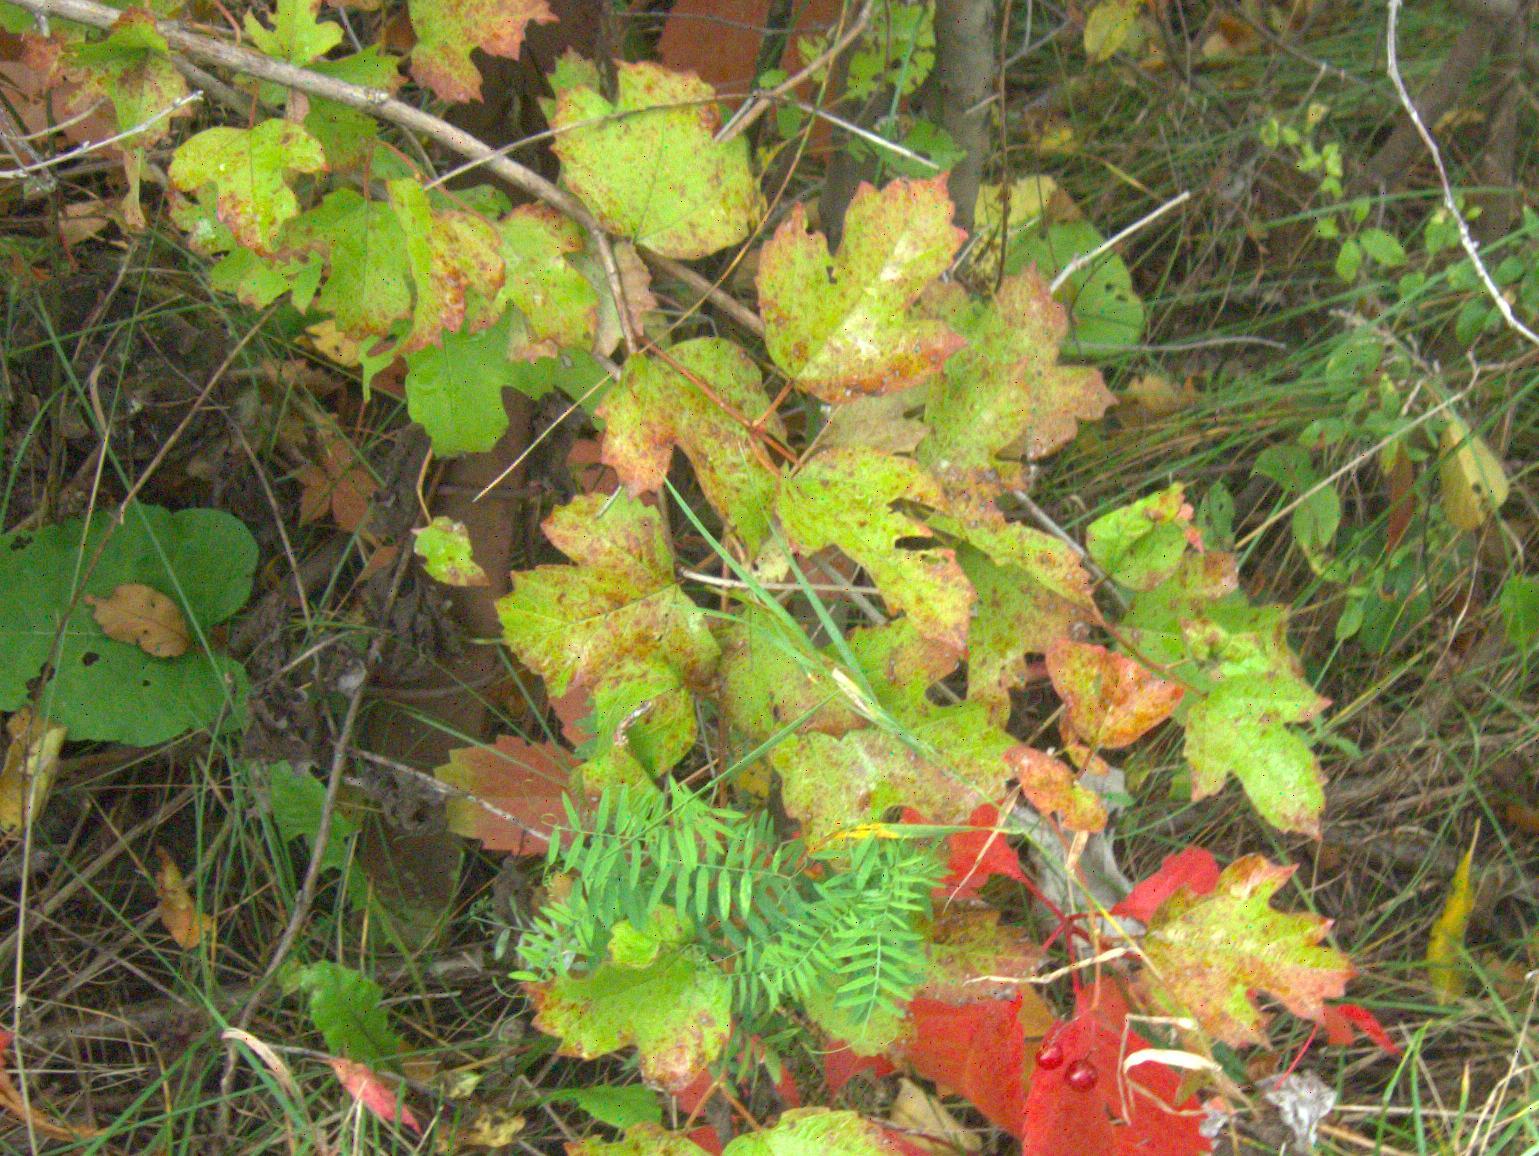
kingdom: Plantae
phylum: Tracheophyta
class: Magnoliopsida
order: Dipsacales
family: Viburnaceae
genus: Viburnum
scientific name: Viburnum opulus
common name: Guelder-rose
